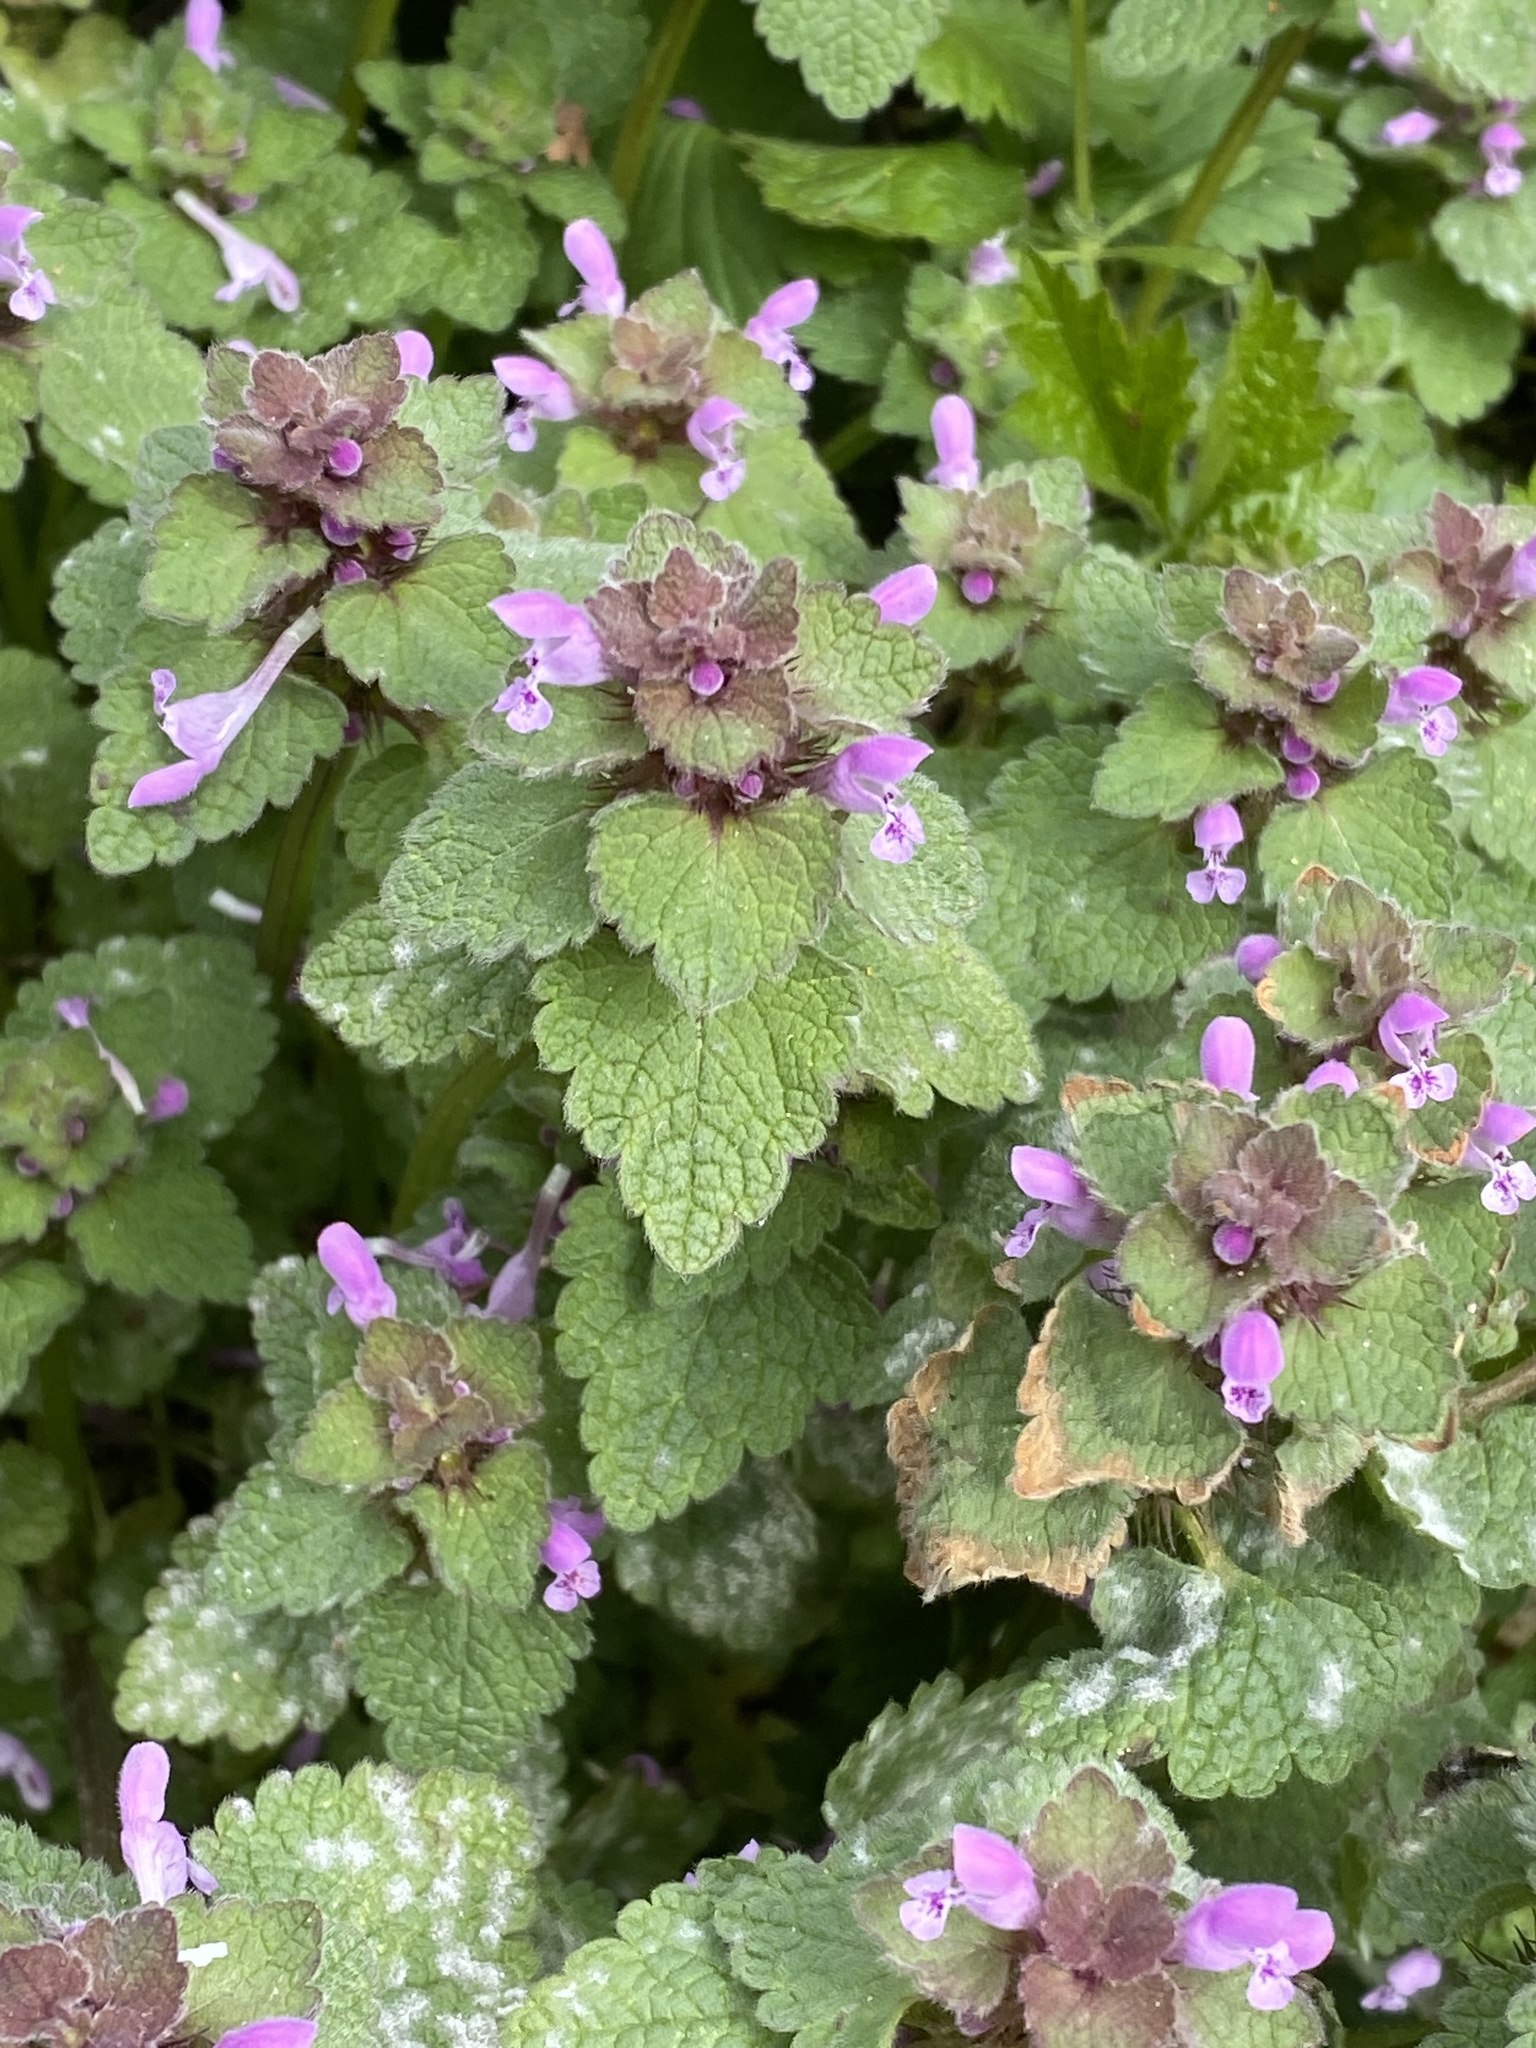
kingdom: Plantae
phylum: Tracheophyta
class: Magnoliopsida
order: Lamiales
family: Lamiaceae
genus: Lamium
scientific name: Lamium purpureum
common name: Red dead-nettle
